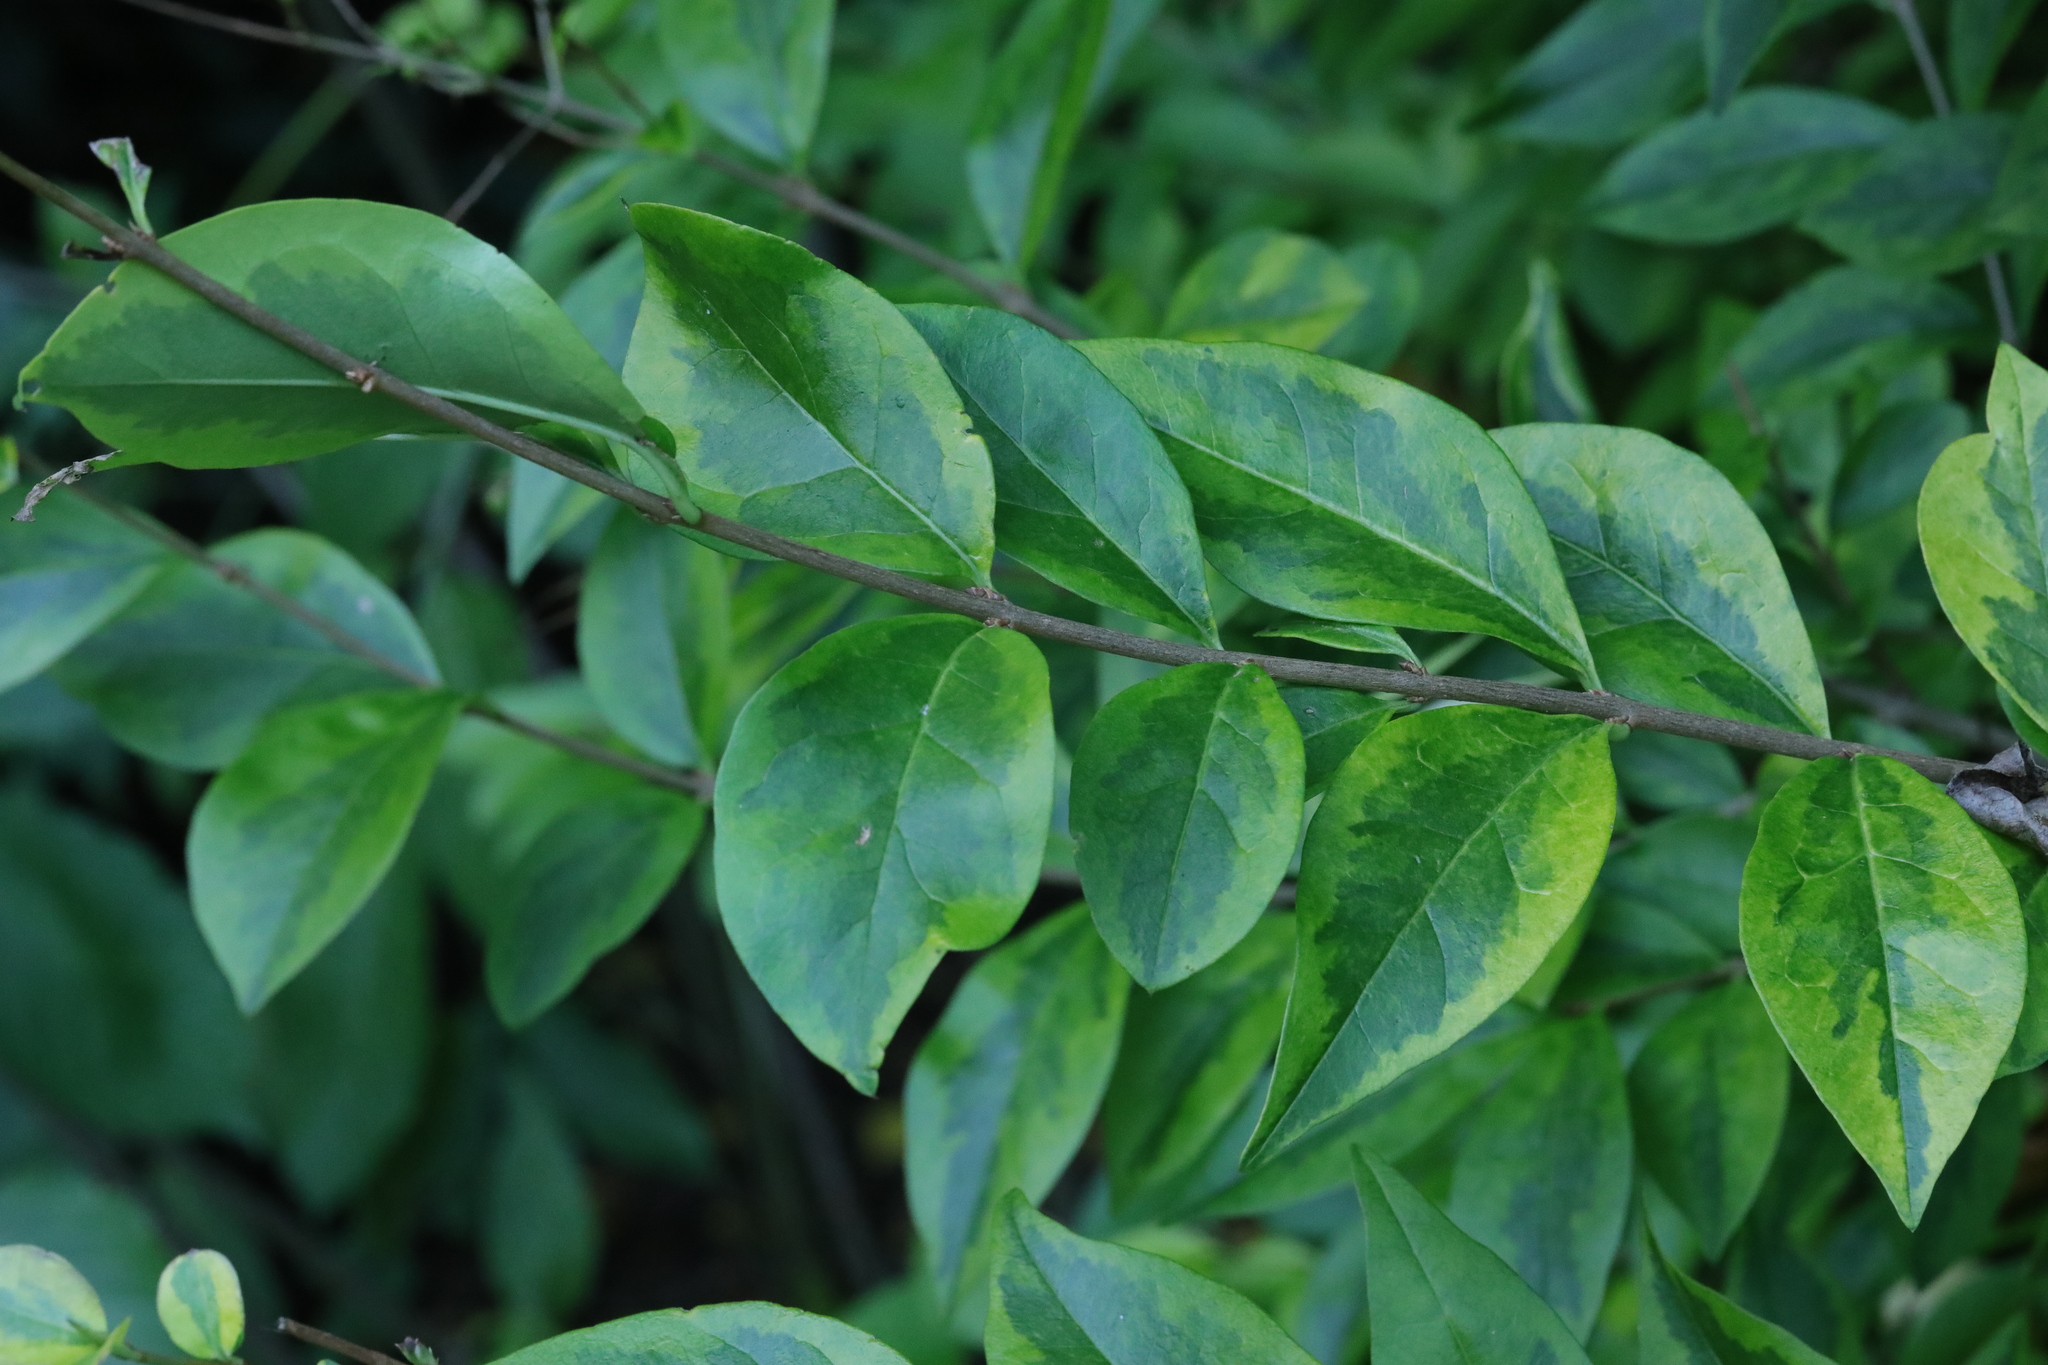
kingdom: Plantae
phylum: Tracheophyta
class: Magnoliopsida
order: Lamiales
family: Oleaceae
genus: Ligustrum
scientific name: Ligustrum ovalifolium
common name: California privet
